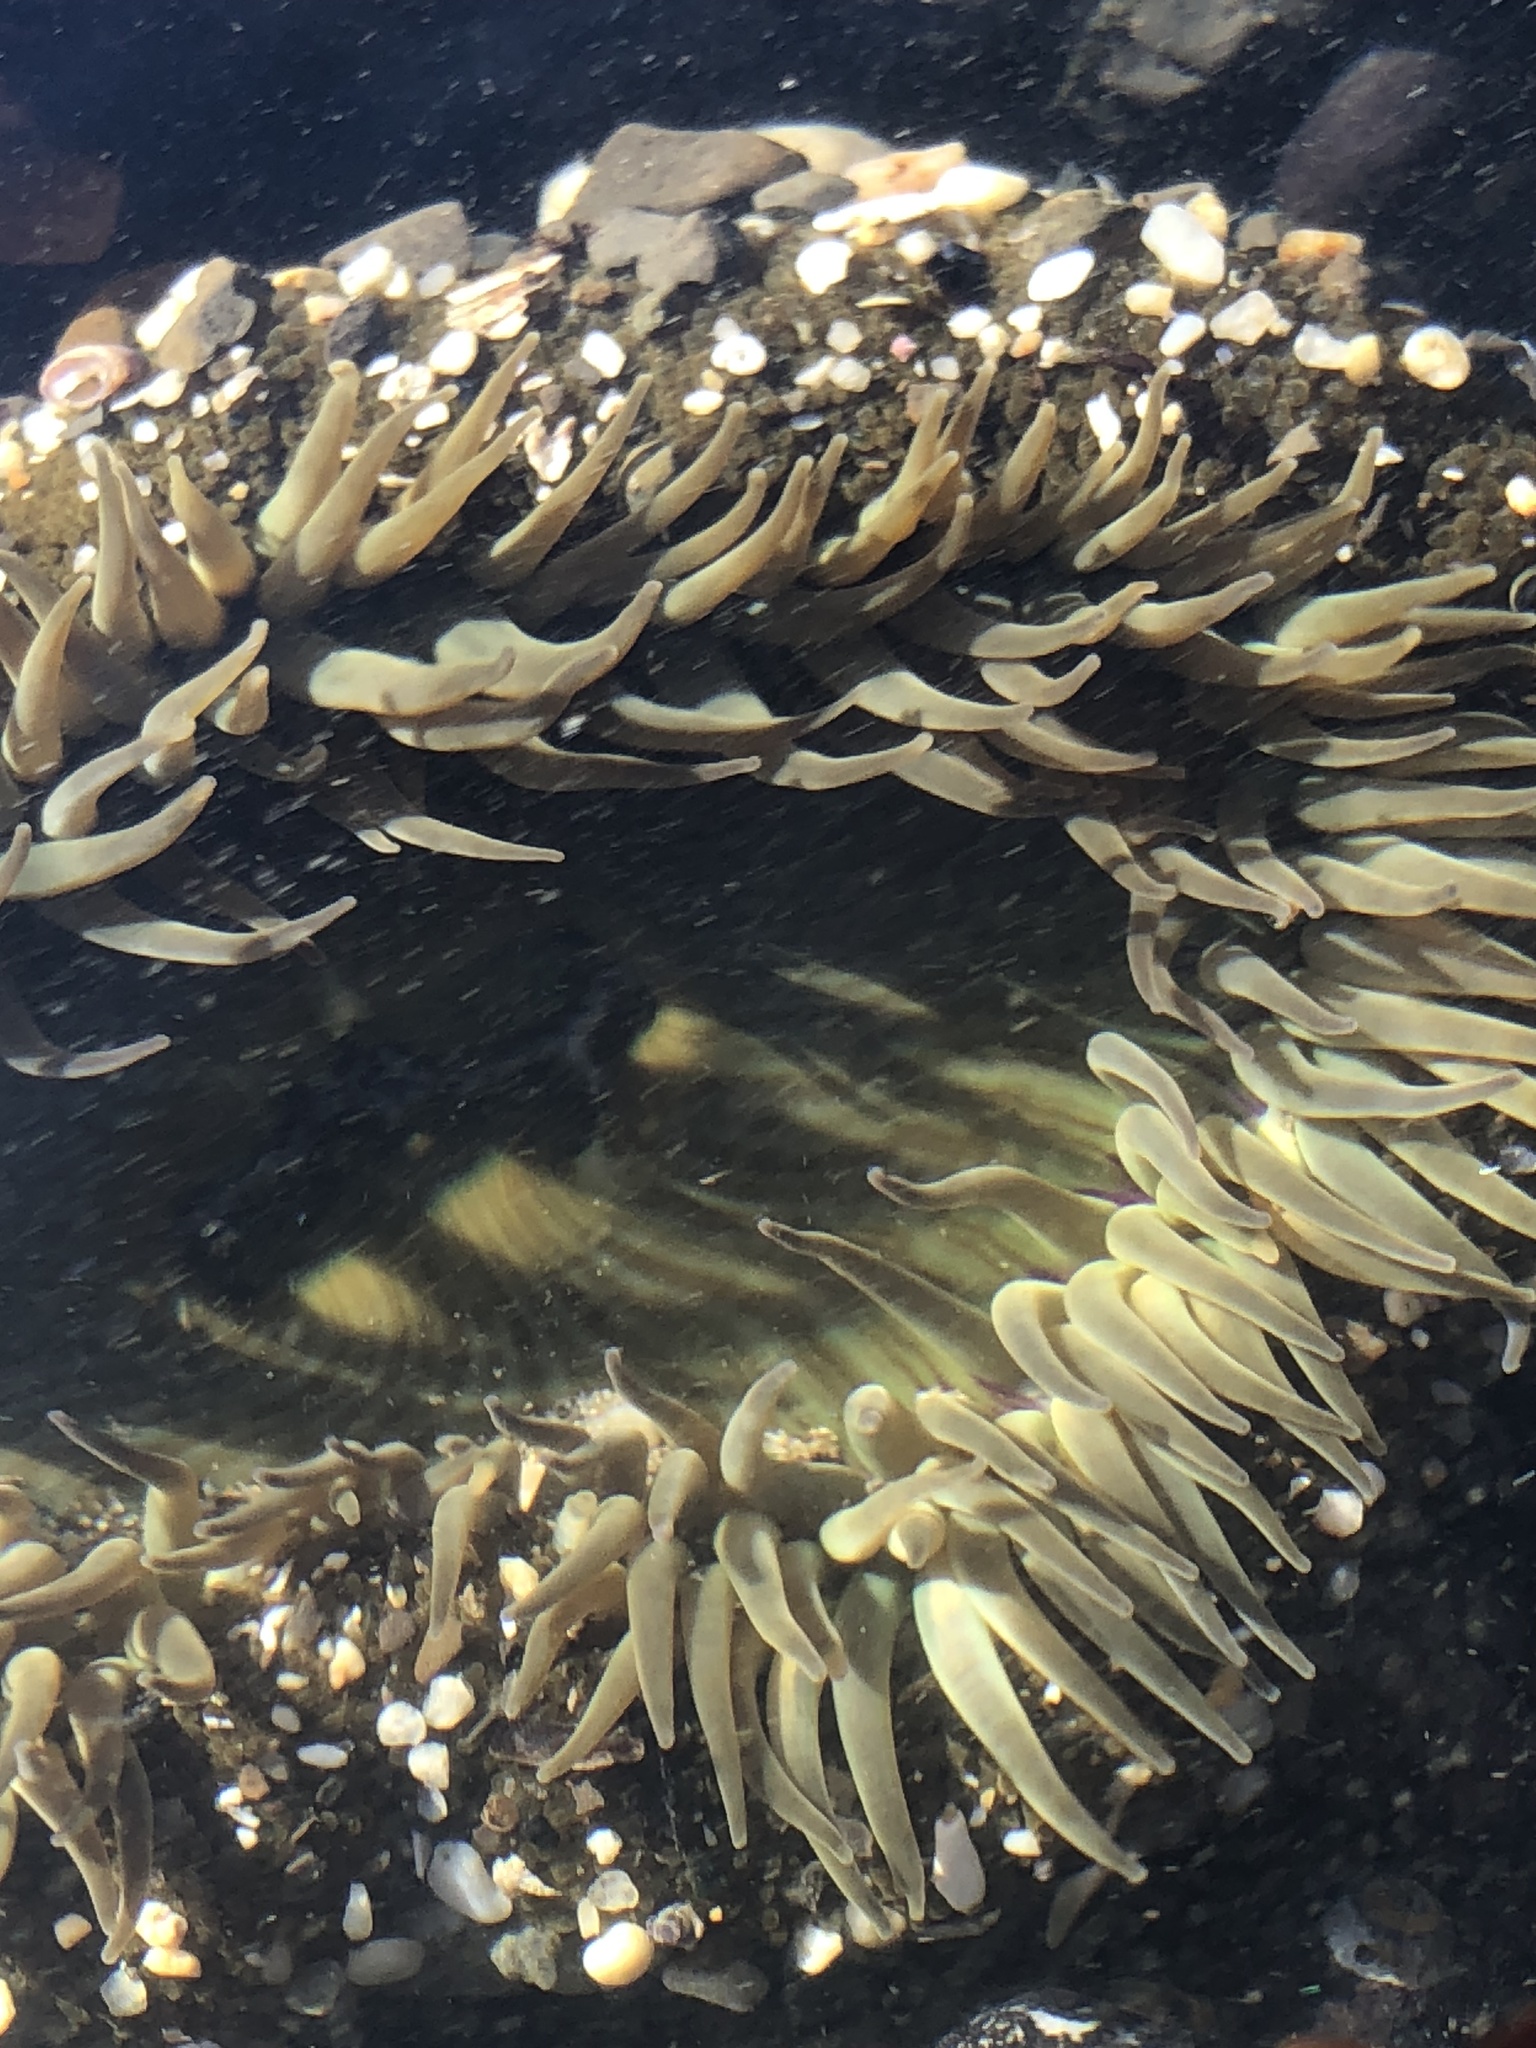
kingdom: Animalia
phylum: Cnidaria
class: Anthozoa
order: Actiniaria
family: Actiniidae
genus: Anthopleura
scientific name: Anthopleura sola
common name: Sun anemone
